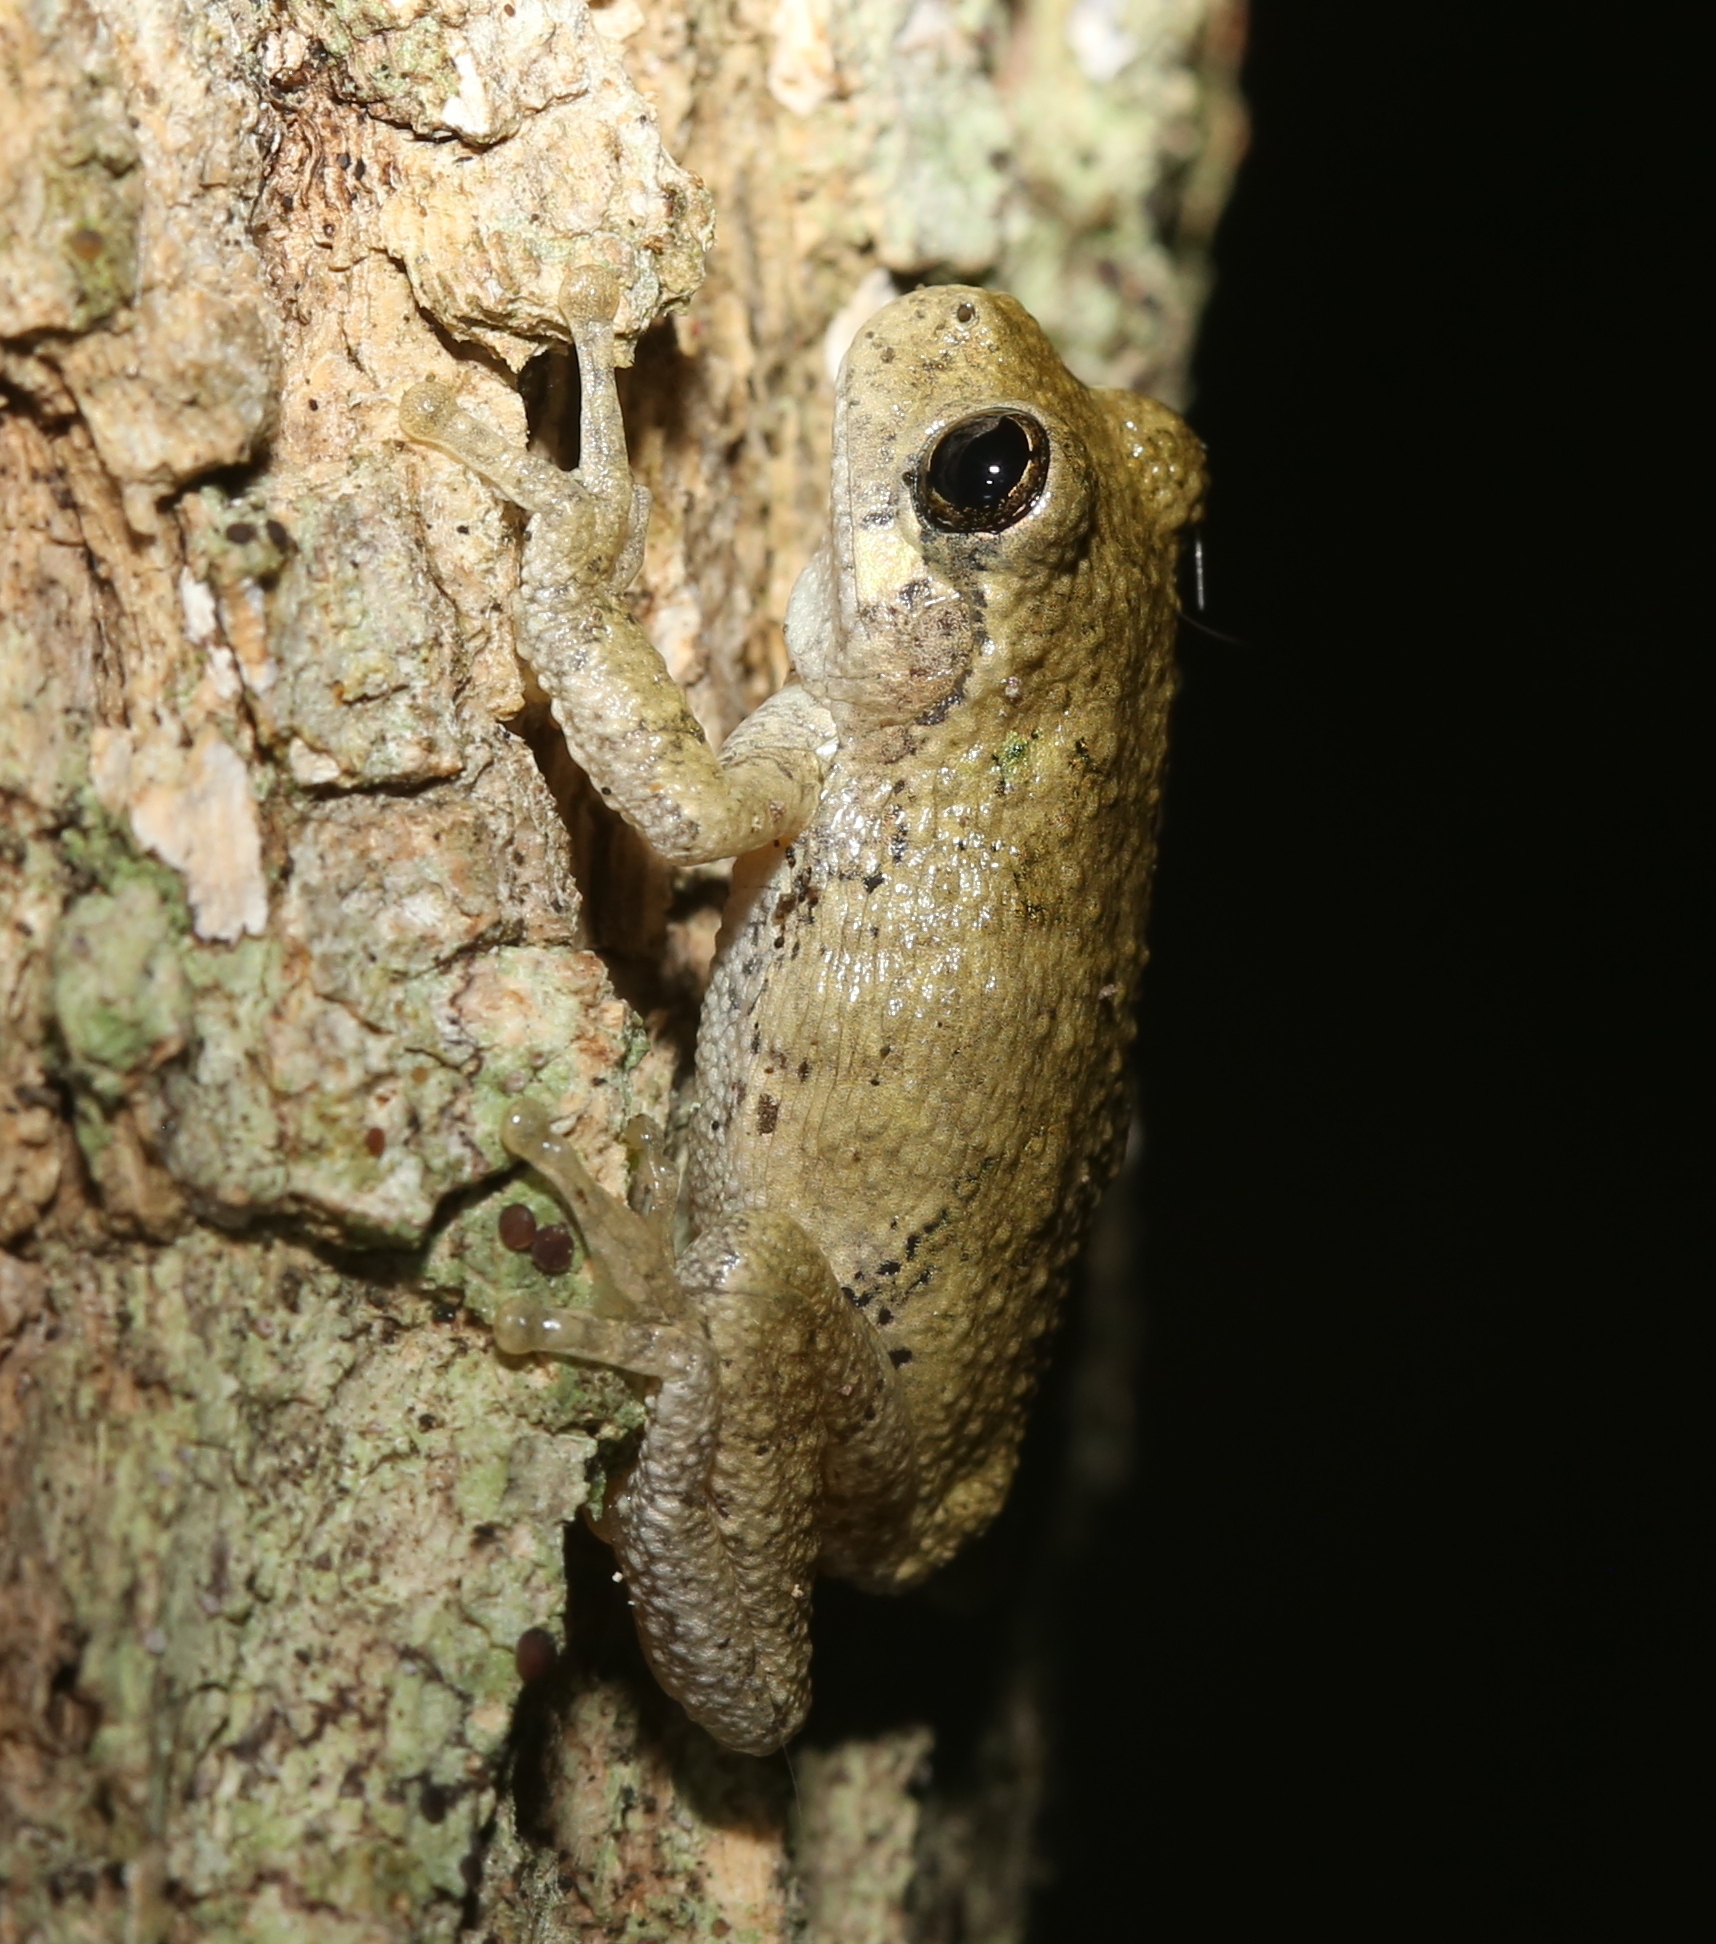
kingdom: Animalia
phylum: Chordata
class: Amphibia
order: Anura
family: Hylidae
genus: Dryophytes
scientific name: Dryophytes chrysoscelis
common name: Cope's gray treefrog
